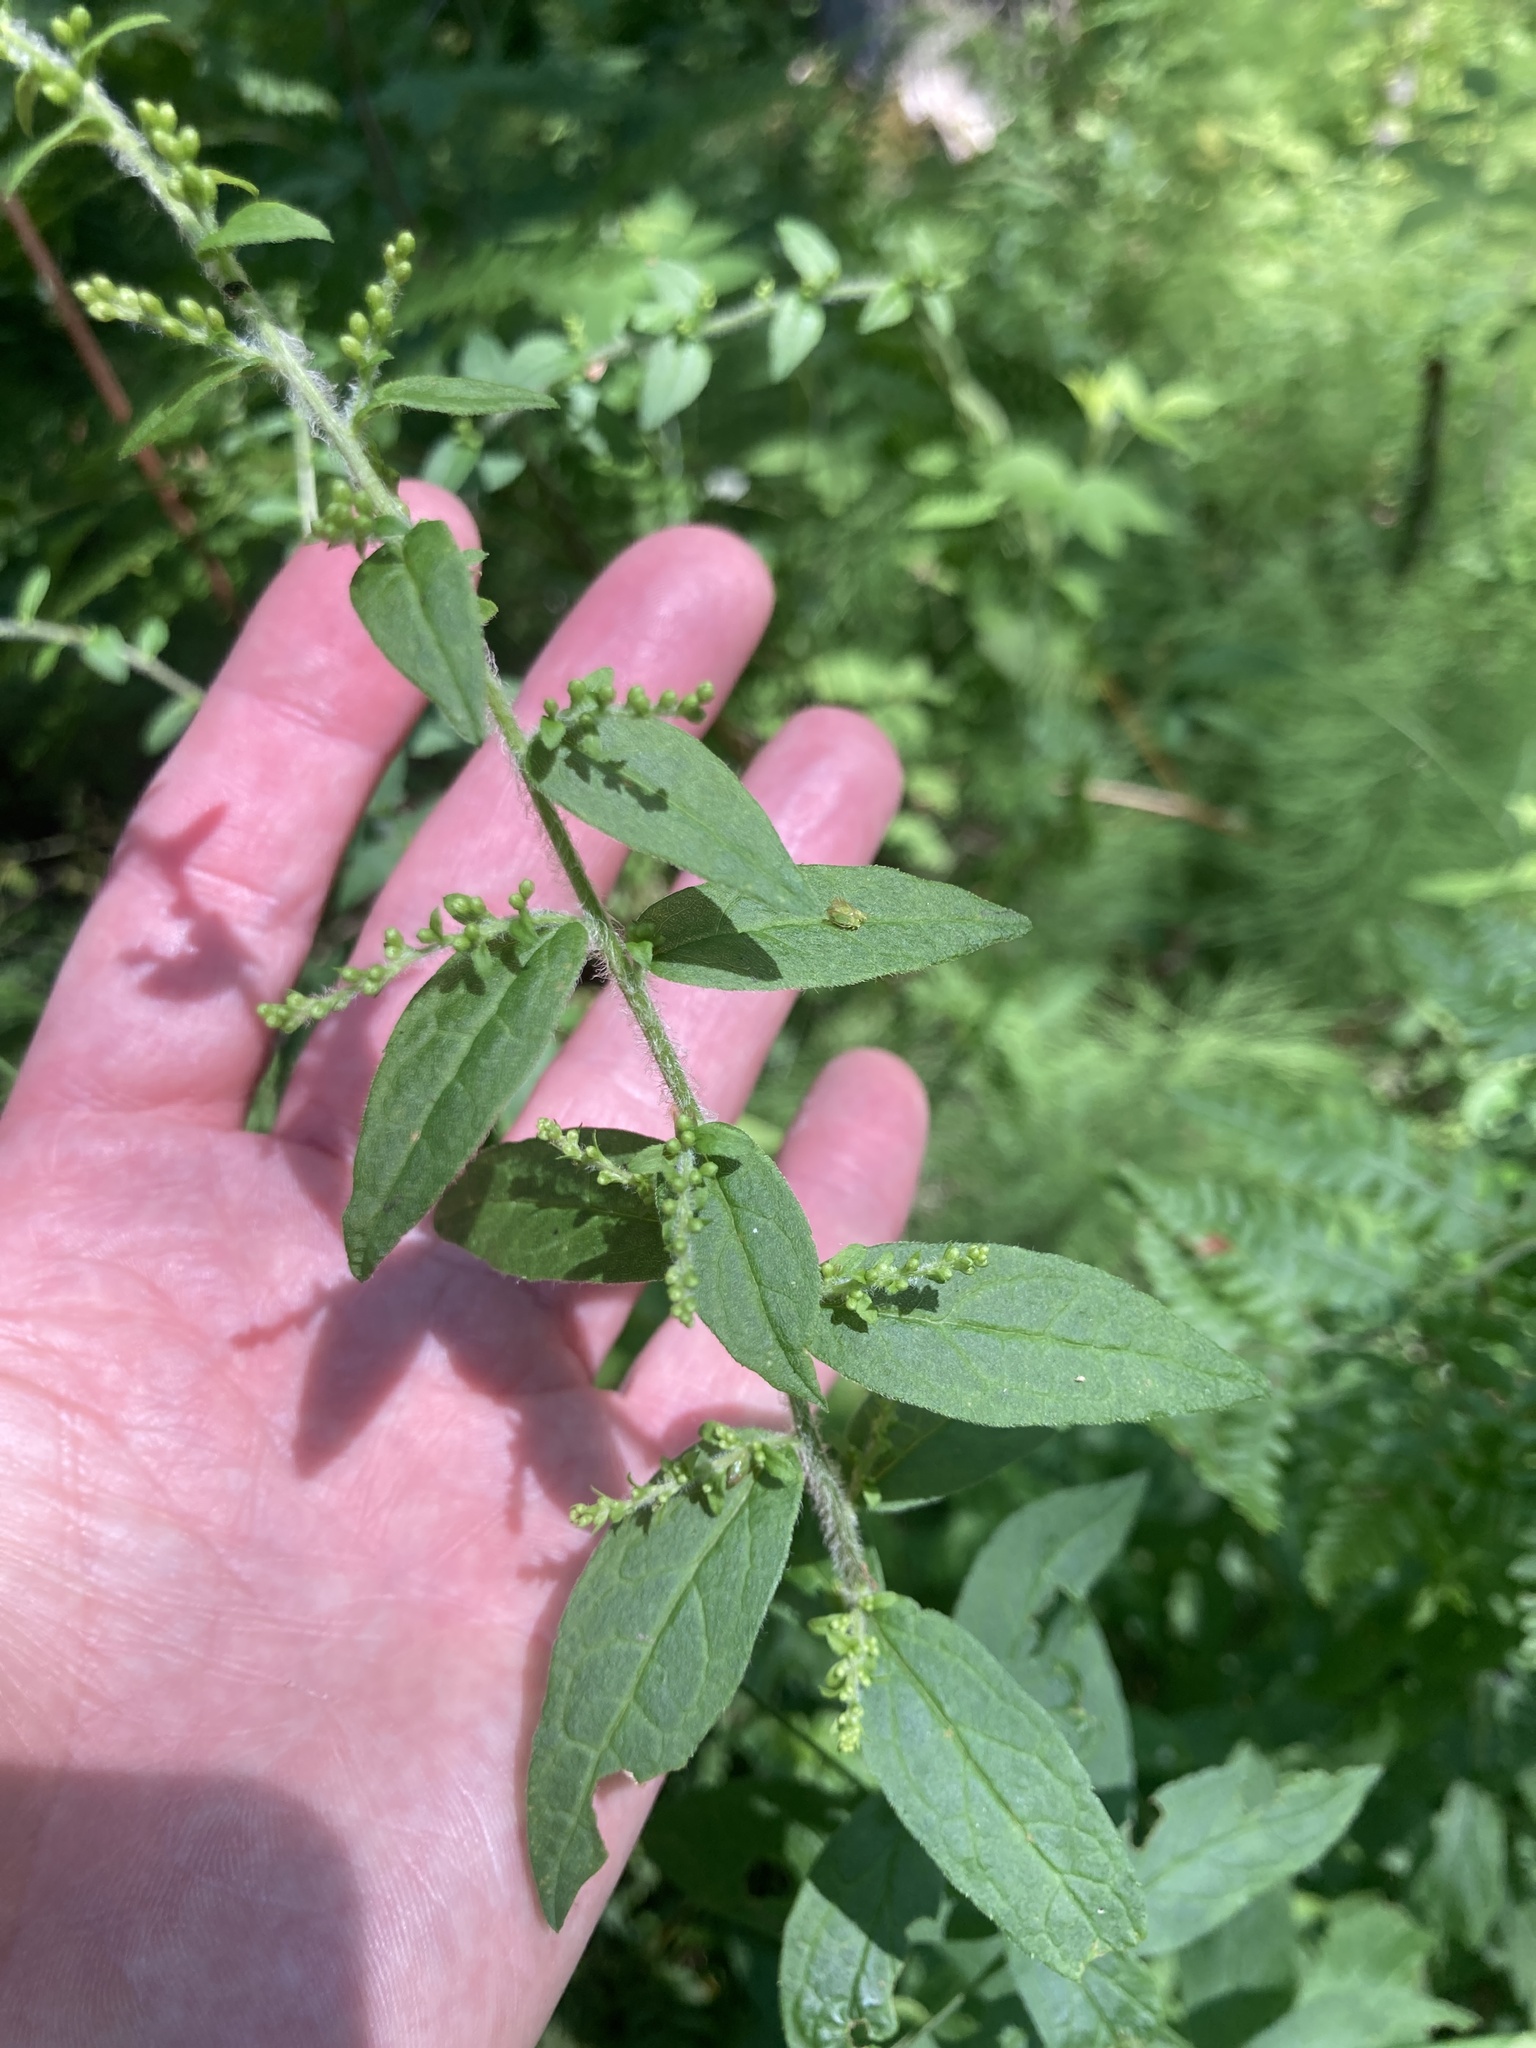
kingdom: Plantae
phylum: Tracheophyta
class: Magnoliopsida
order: Asterales
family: Asteraceae
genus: Solidago
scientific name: Solidago rugosa
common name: Rough-stemmed goldenrod
